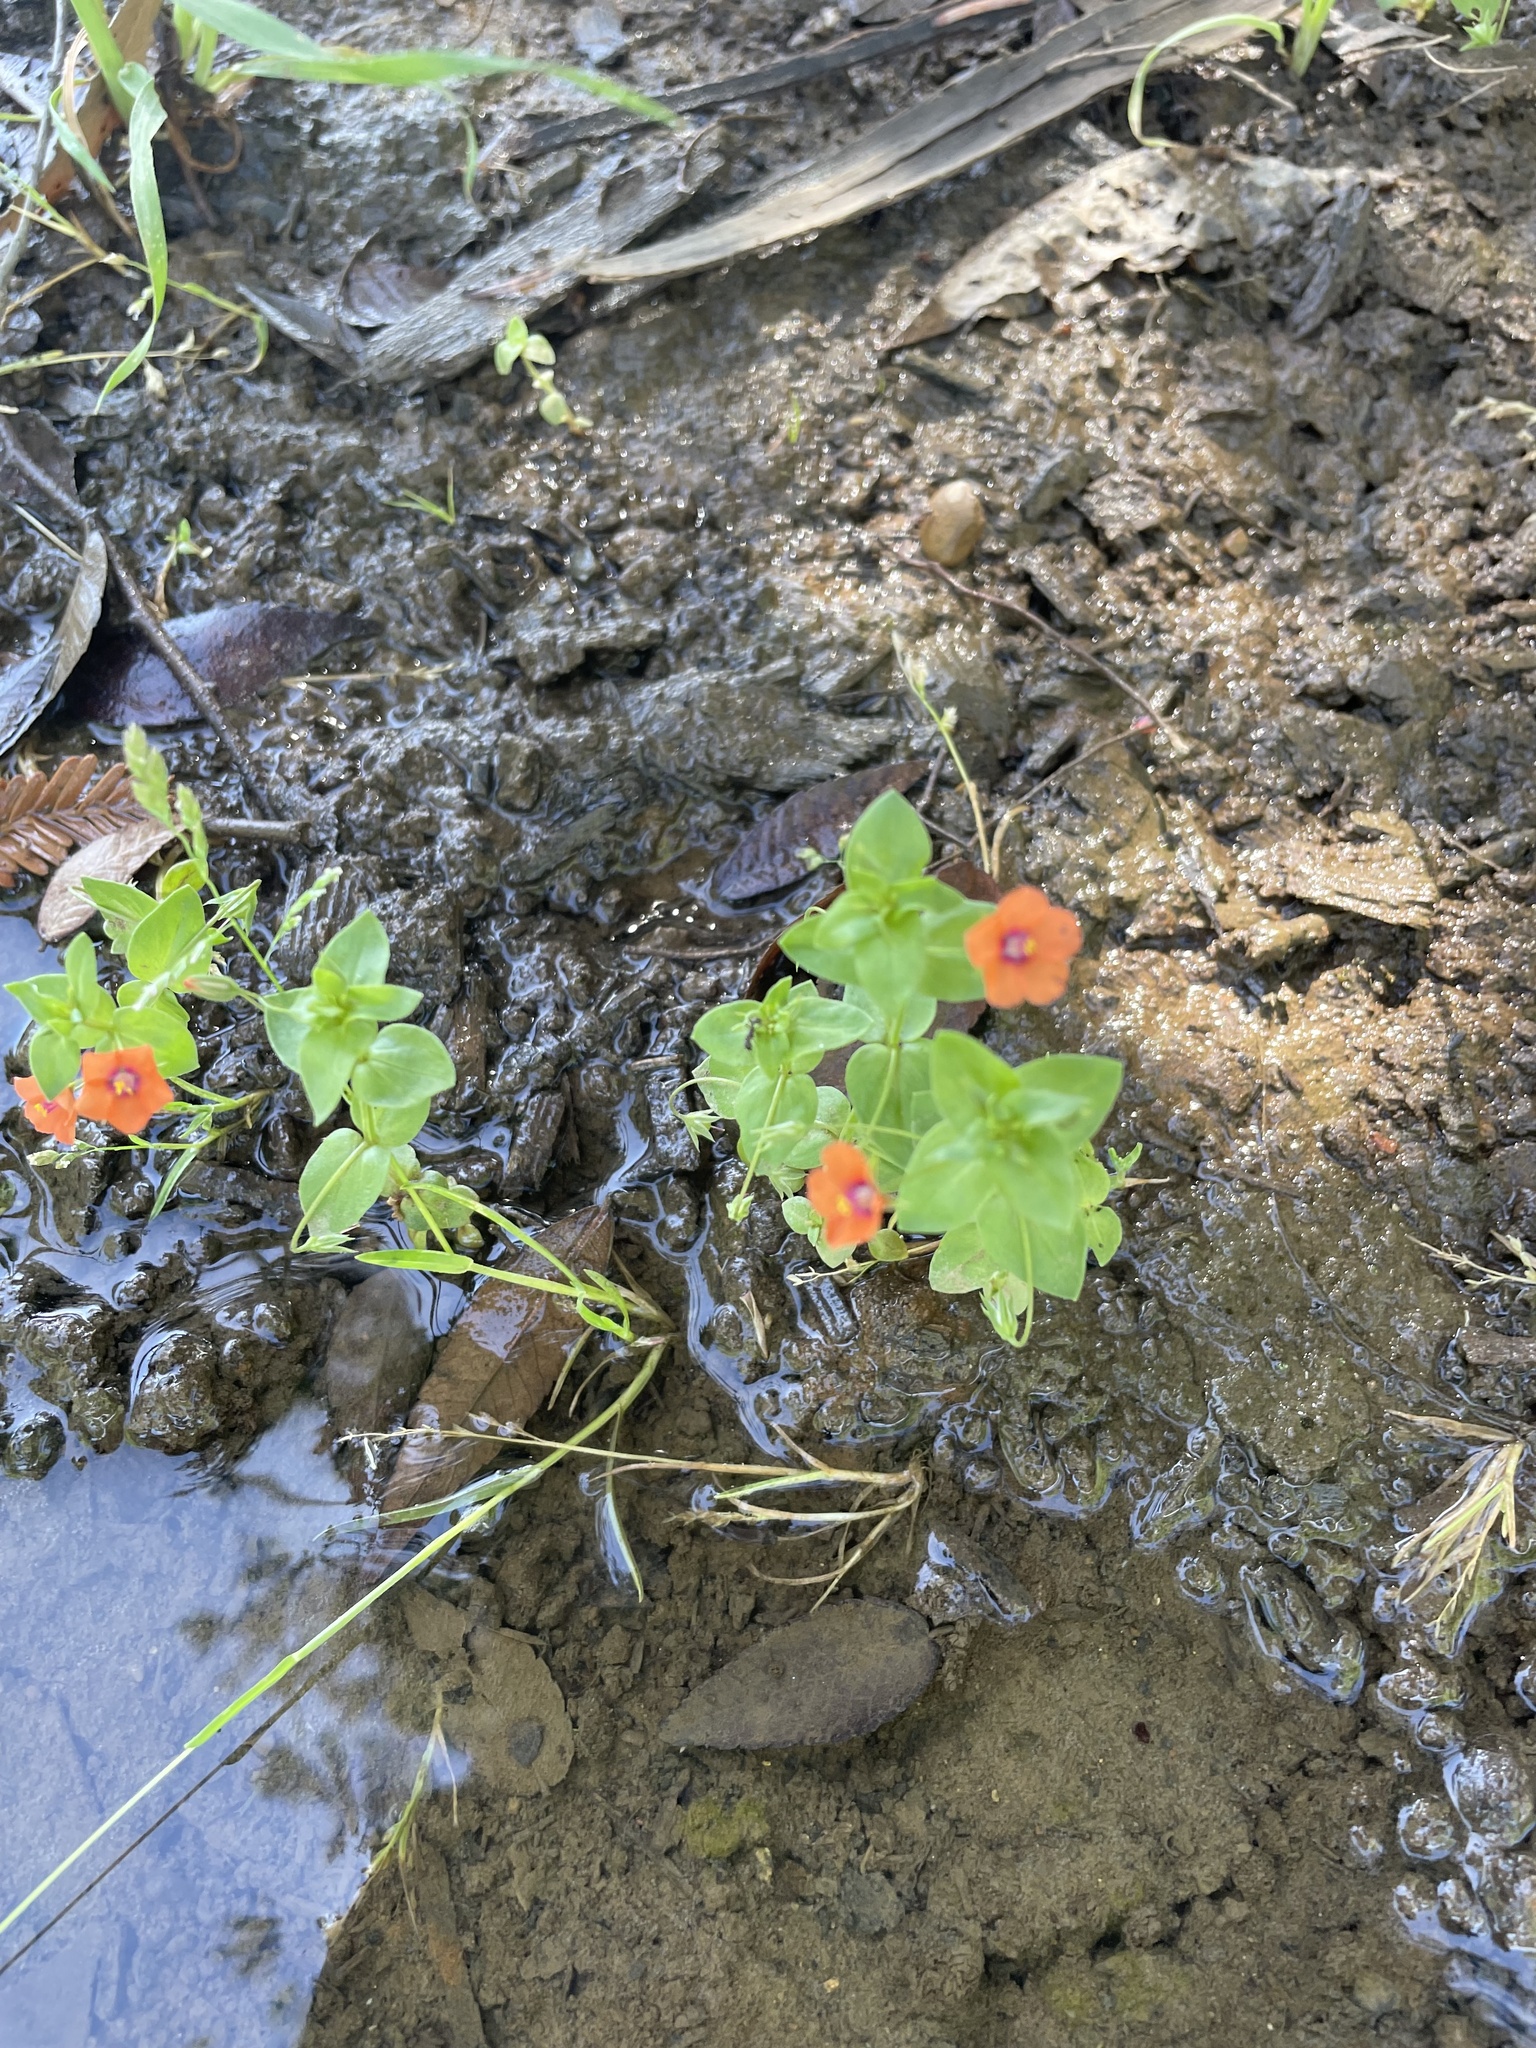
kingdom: Plantae
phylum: Tracheophyta
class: Magnoliopsida
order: Ericales
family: Primulaceae
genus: Lysimachia
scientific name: Lysimachia arvensis
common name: Scarlet pimpernel
